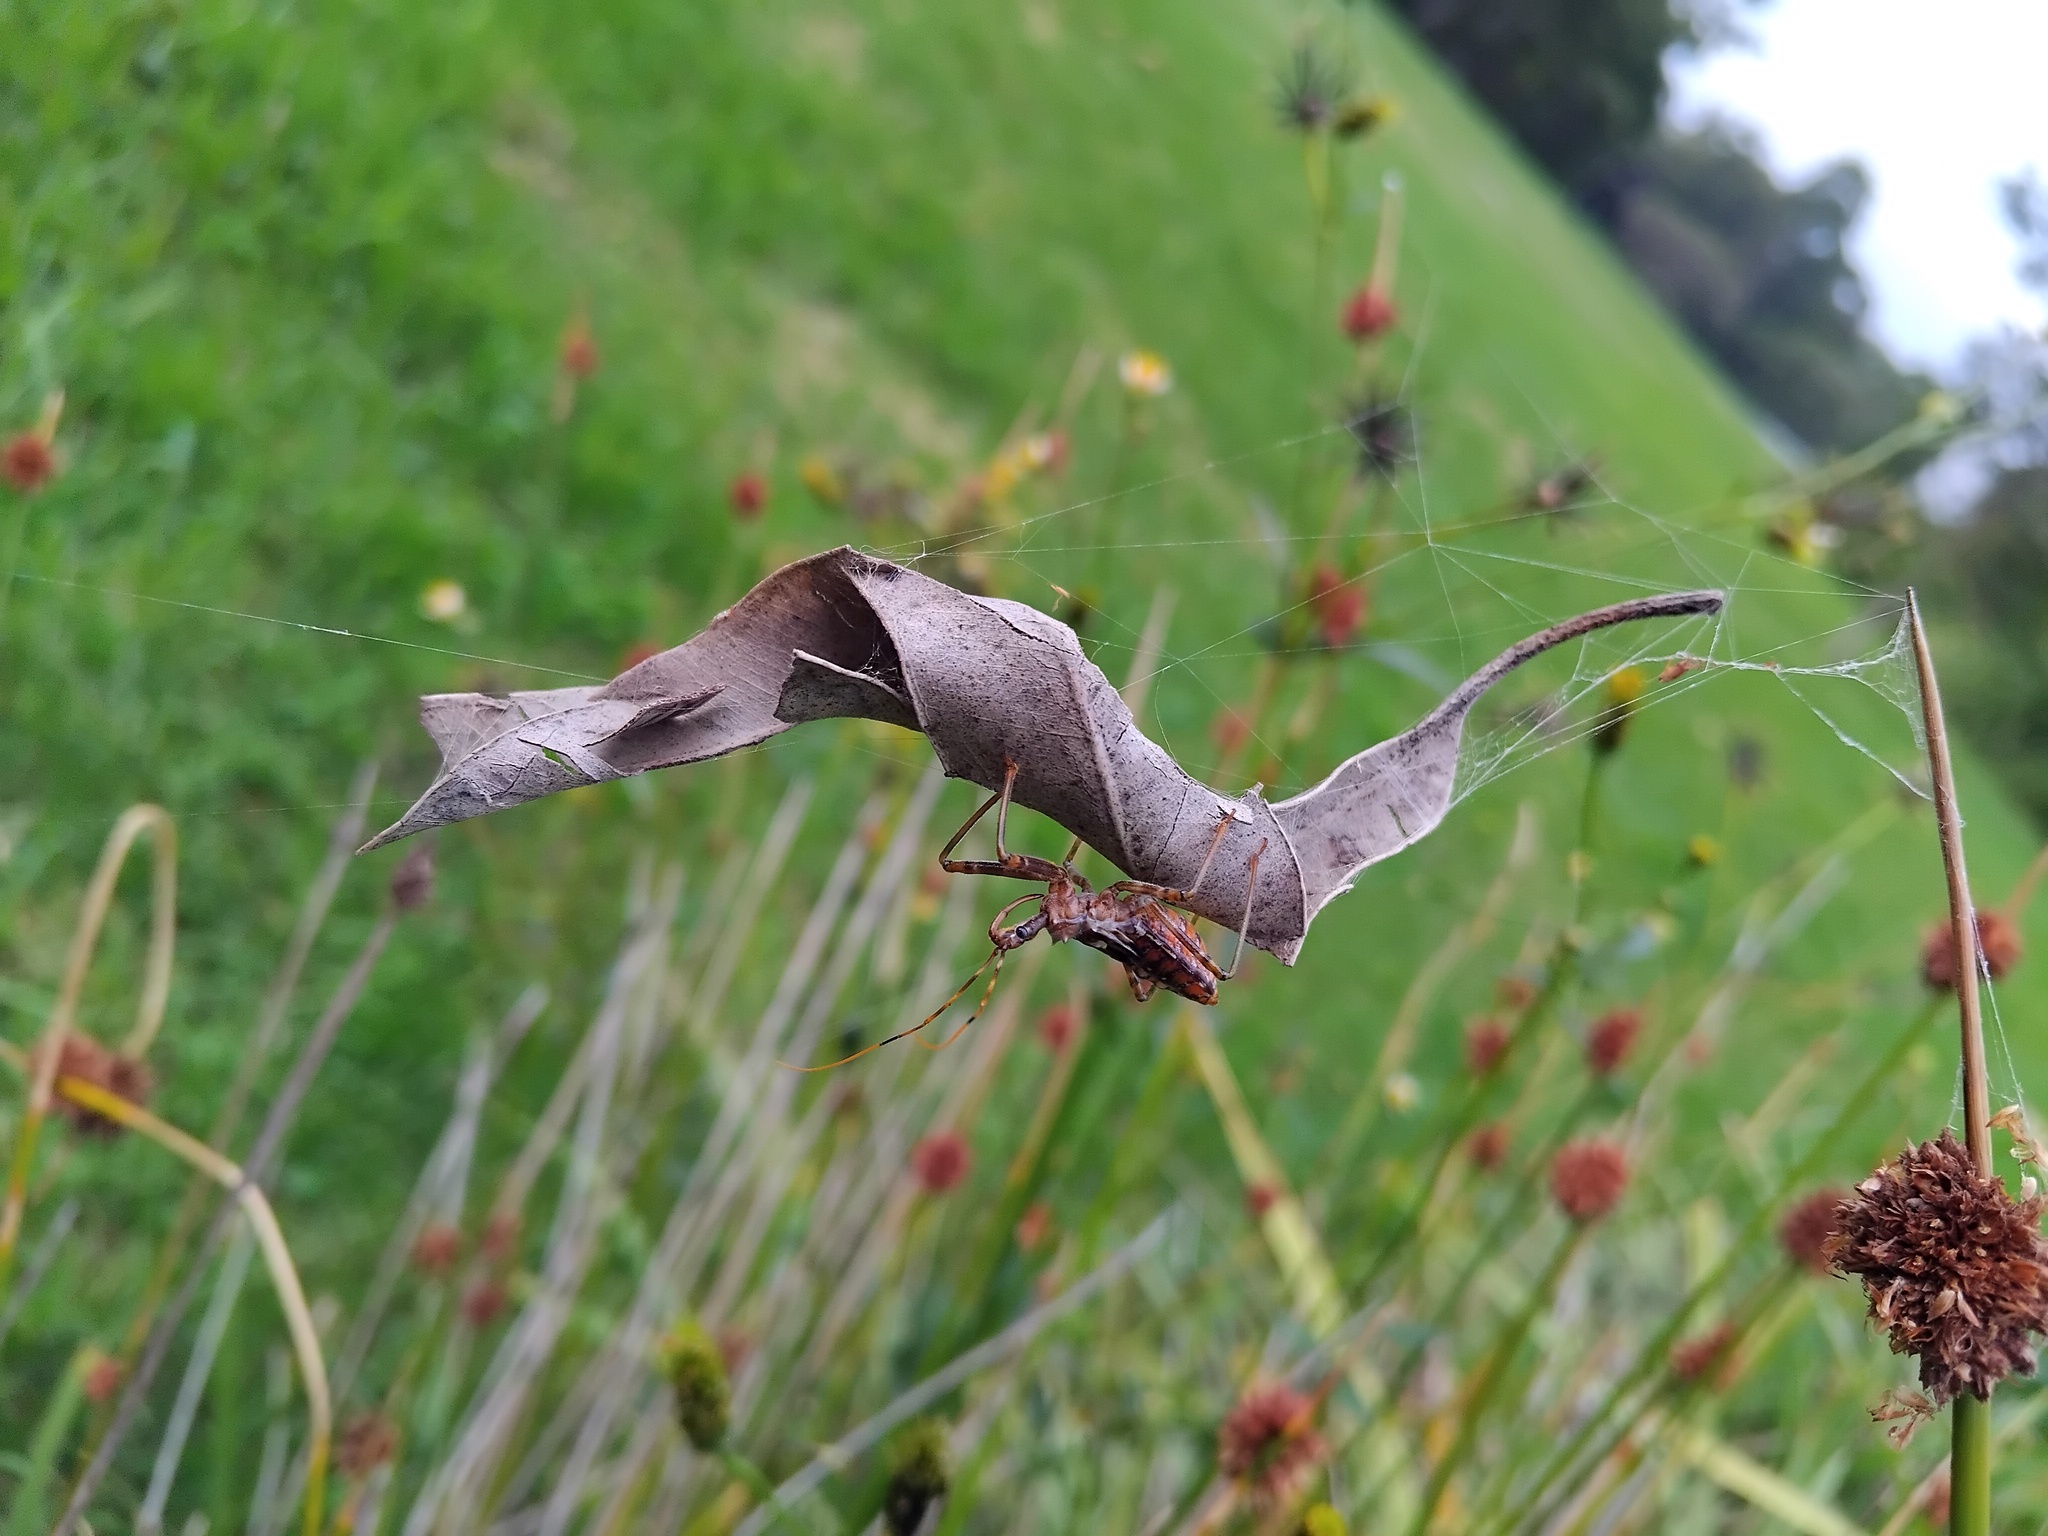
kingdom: Animalia
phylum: Arthropoda
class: Arachnida
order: Araneae
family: Araneidae
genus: Phonognatha
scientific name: Phonognatha graeffei
